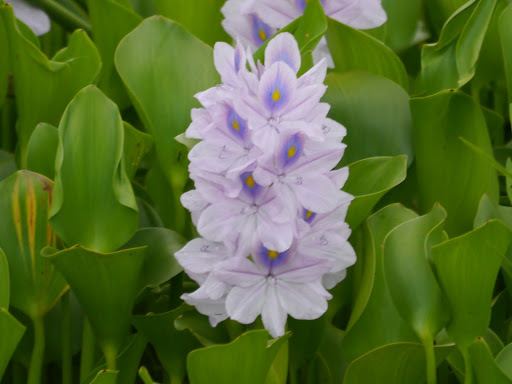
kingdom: Plantae
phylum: Tracheophyta
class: Liliopsida
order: Commelinales
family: Pontederiaceae
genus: Pontederia
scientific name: Pontederia crassipes
